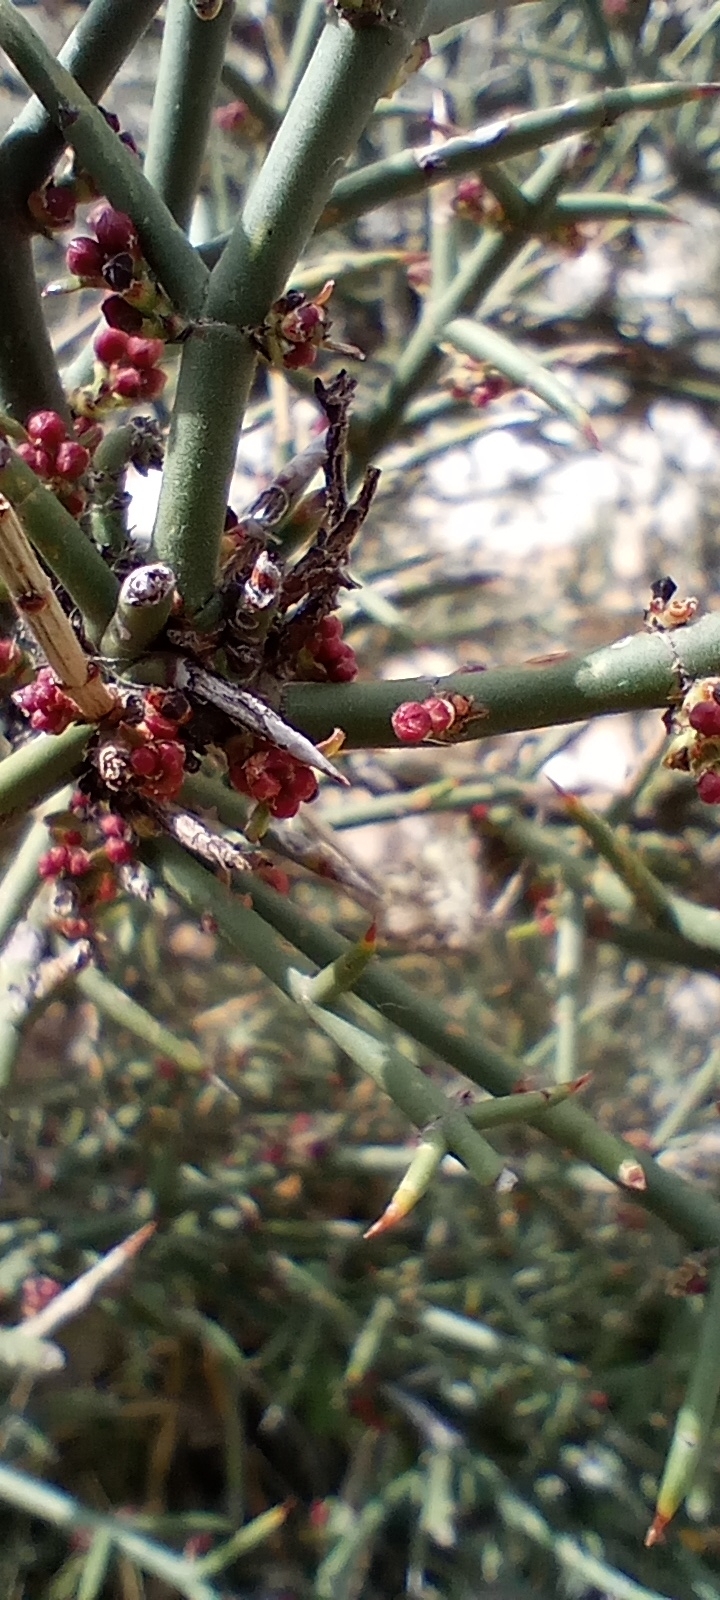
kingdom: Plantae
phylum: Tracheophyta
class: Magnoliopsida
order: Rosales
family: Rhamnaceae
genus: Discaria
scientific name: Discaria americana
